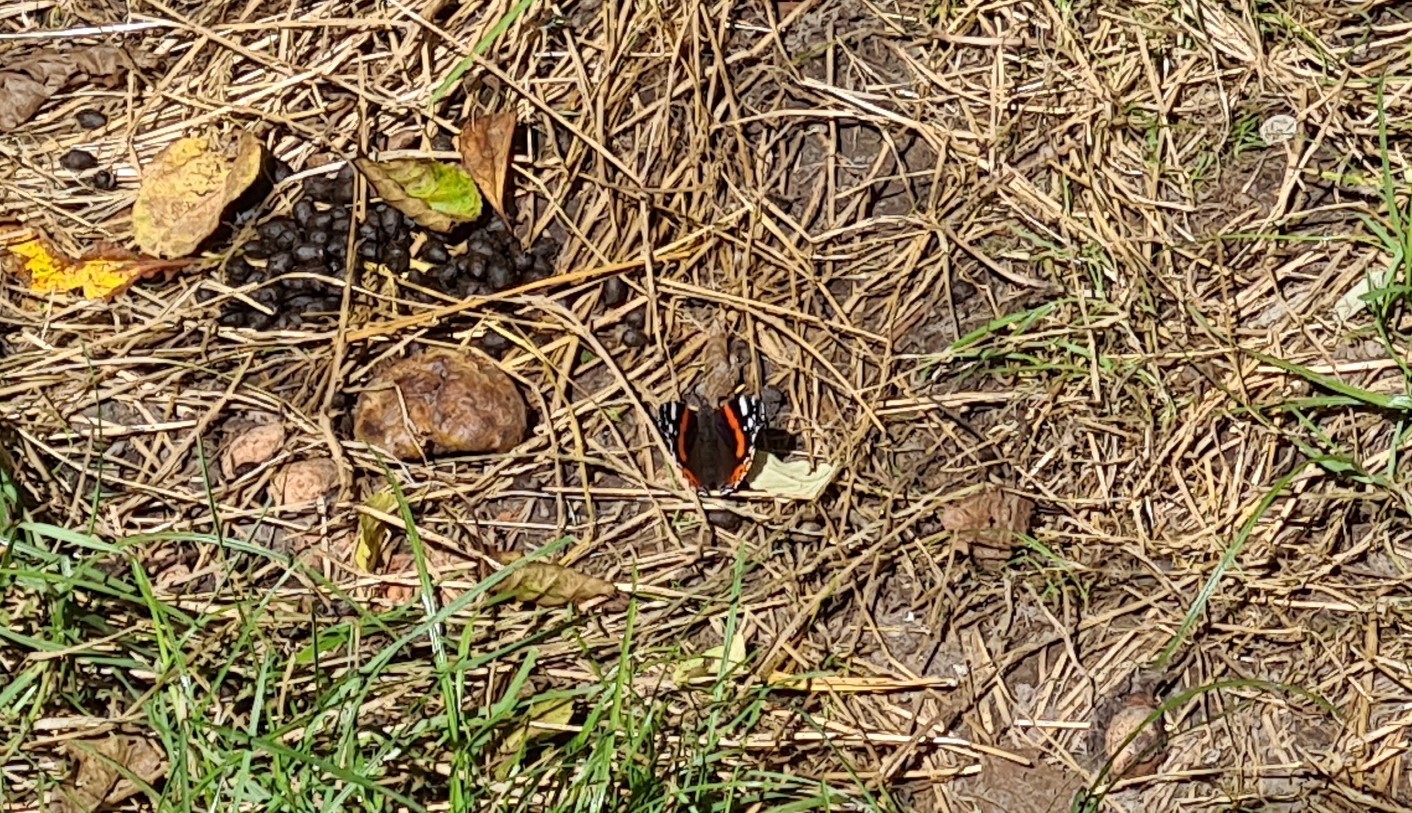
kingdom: Animalia
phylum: Arthropoda
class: Insecta
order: Lepidoptera
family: Nymphalidae
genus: Vanessa
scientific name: Vanessa atalanta
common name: Red admiral
